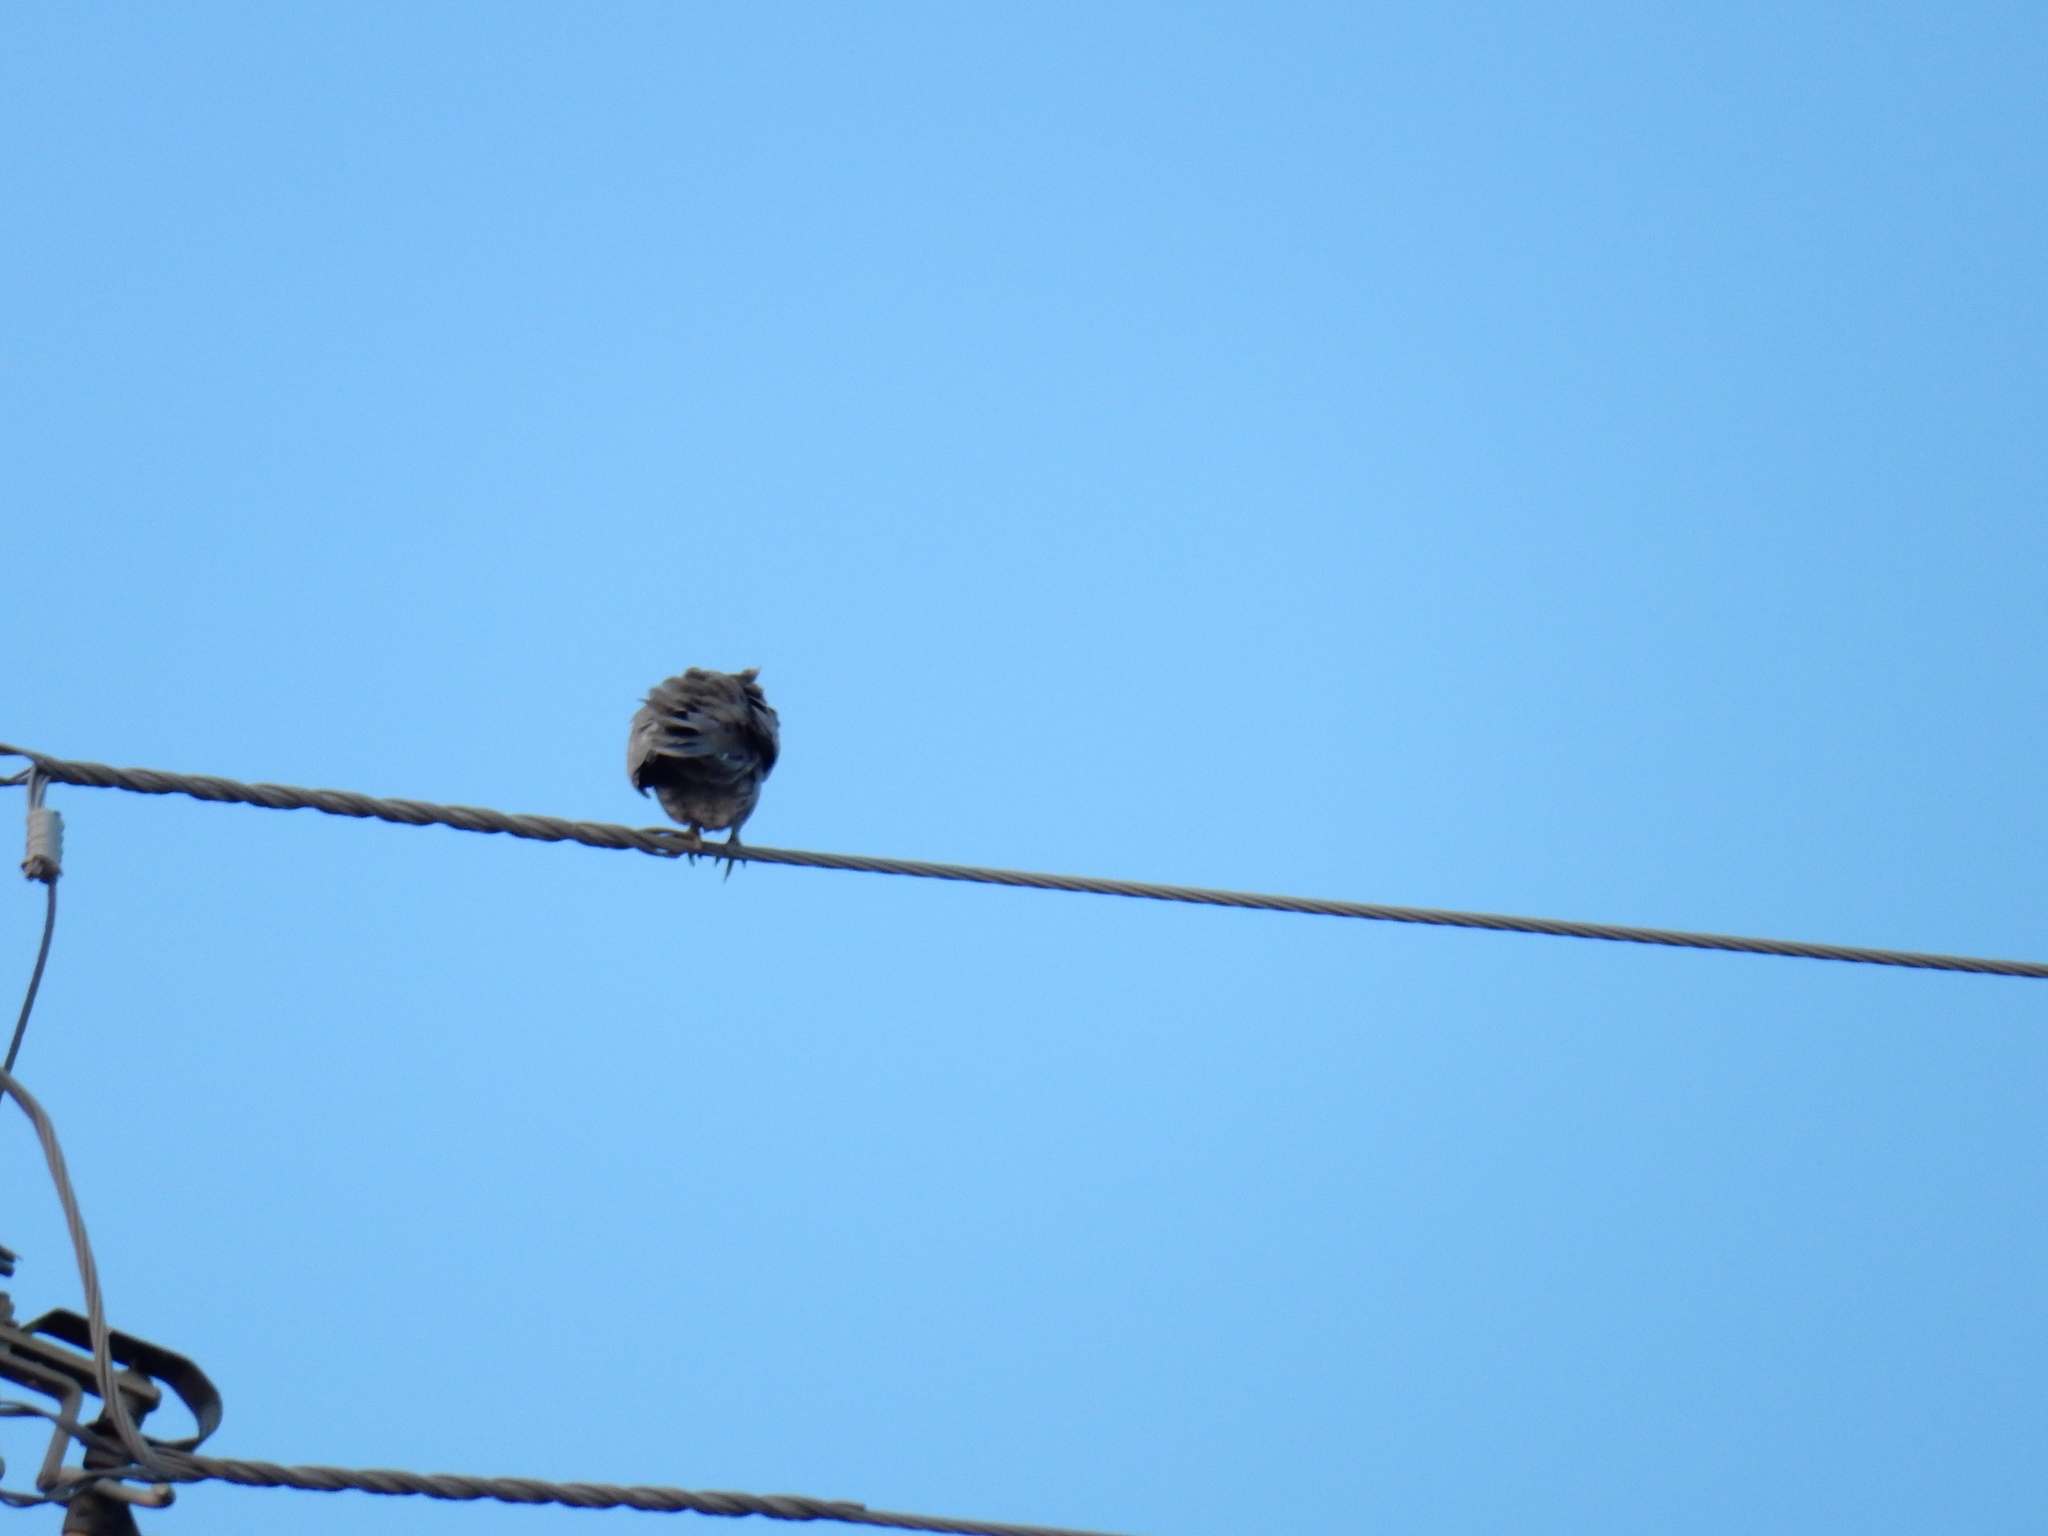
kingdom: Animalia
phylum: Chordata
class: Aves
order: Columbiformes
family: Columbidae
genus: Streptopelia
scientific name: Streptopelia decaocto
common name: Eurasian collared dove
